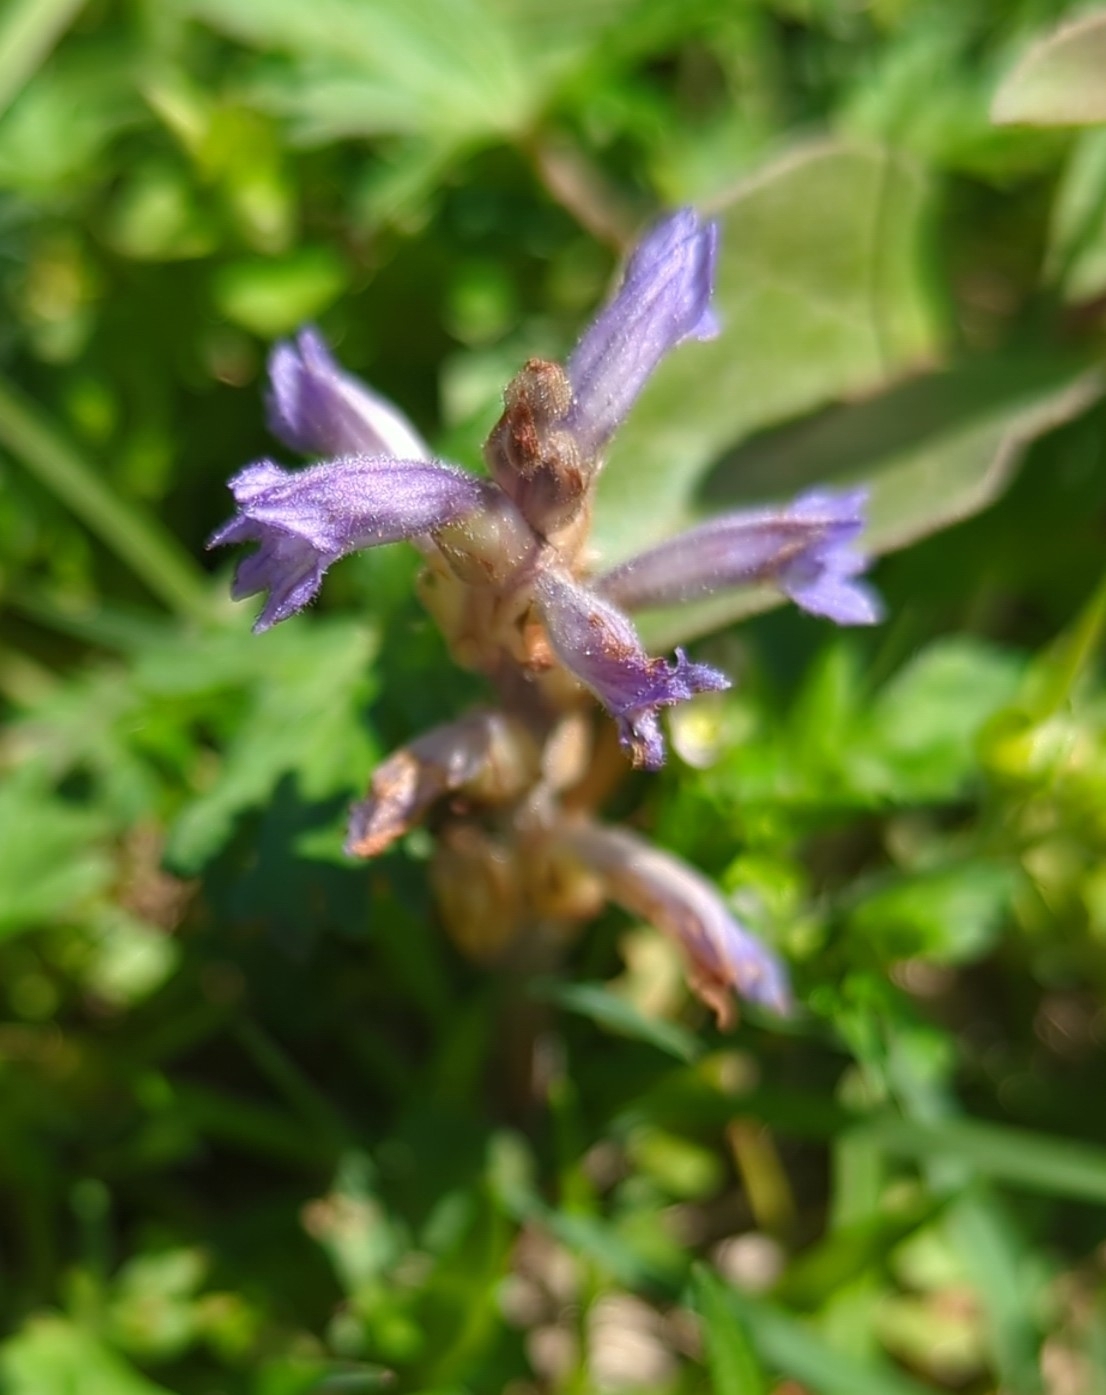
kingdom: Plantae
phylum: Tracheophyta
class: Magnoliopsida
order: Lamiales
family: Orobanchaceae
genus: Phelipanche
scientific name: Phelipanche mutelii
